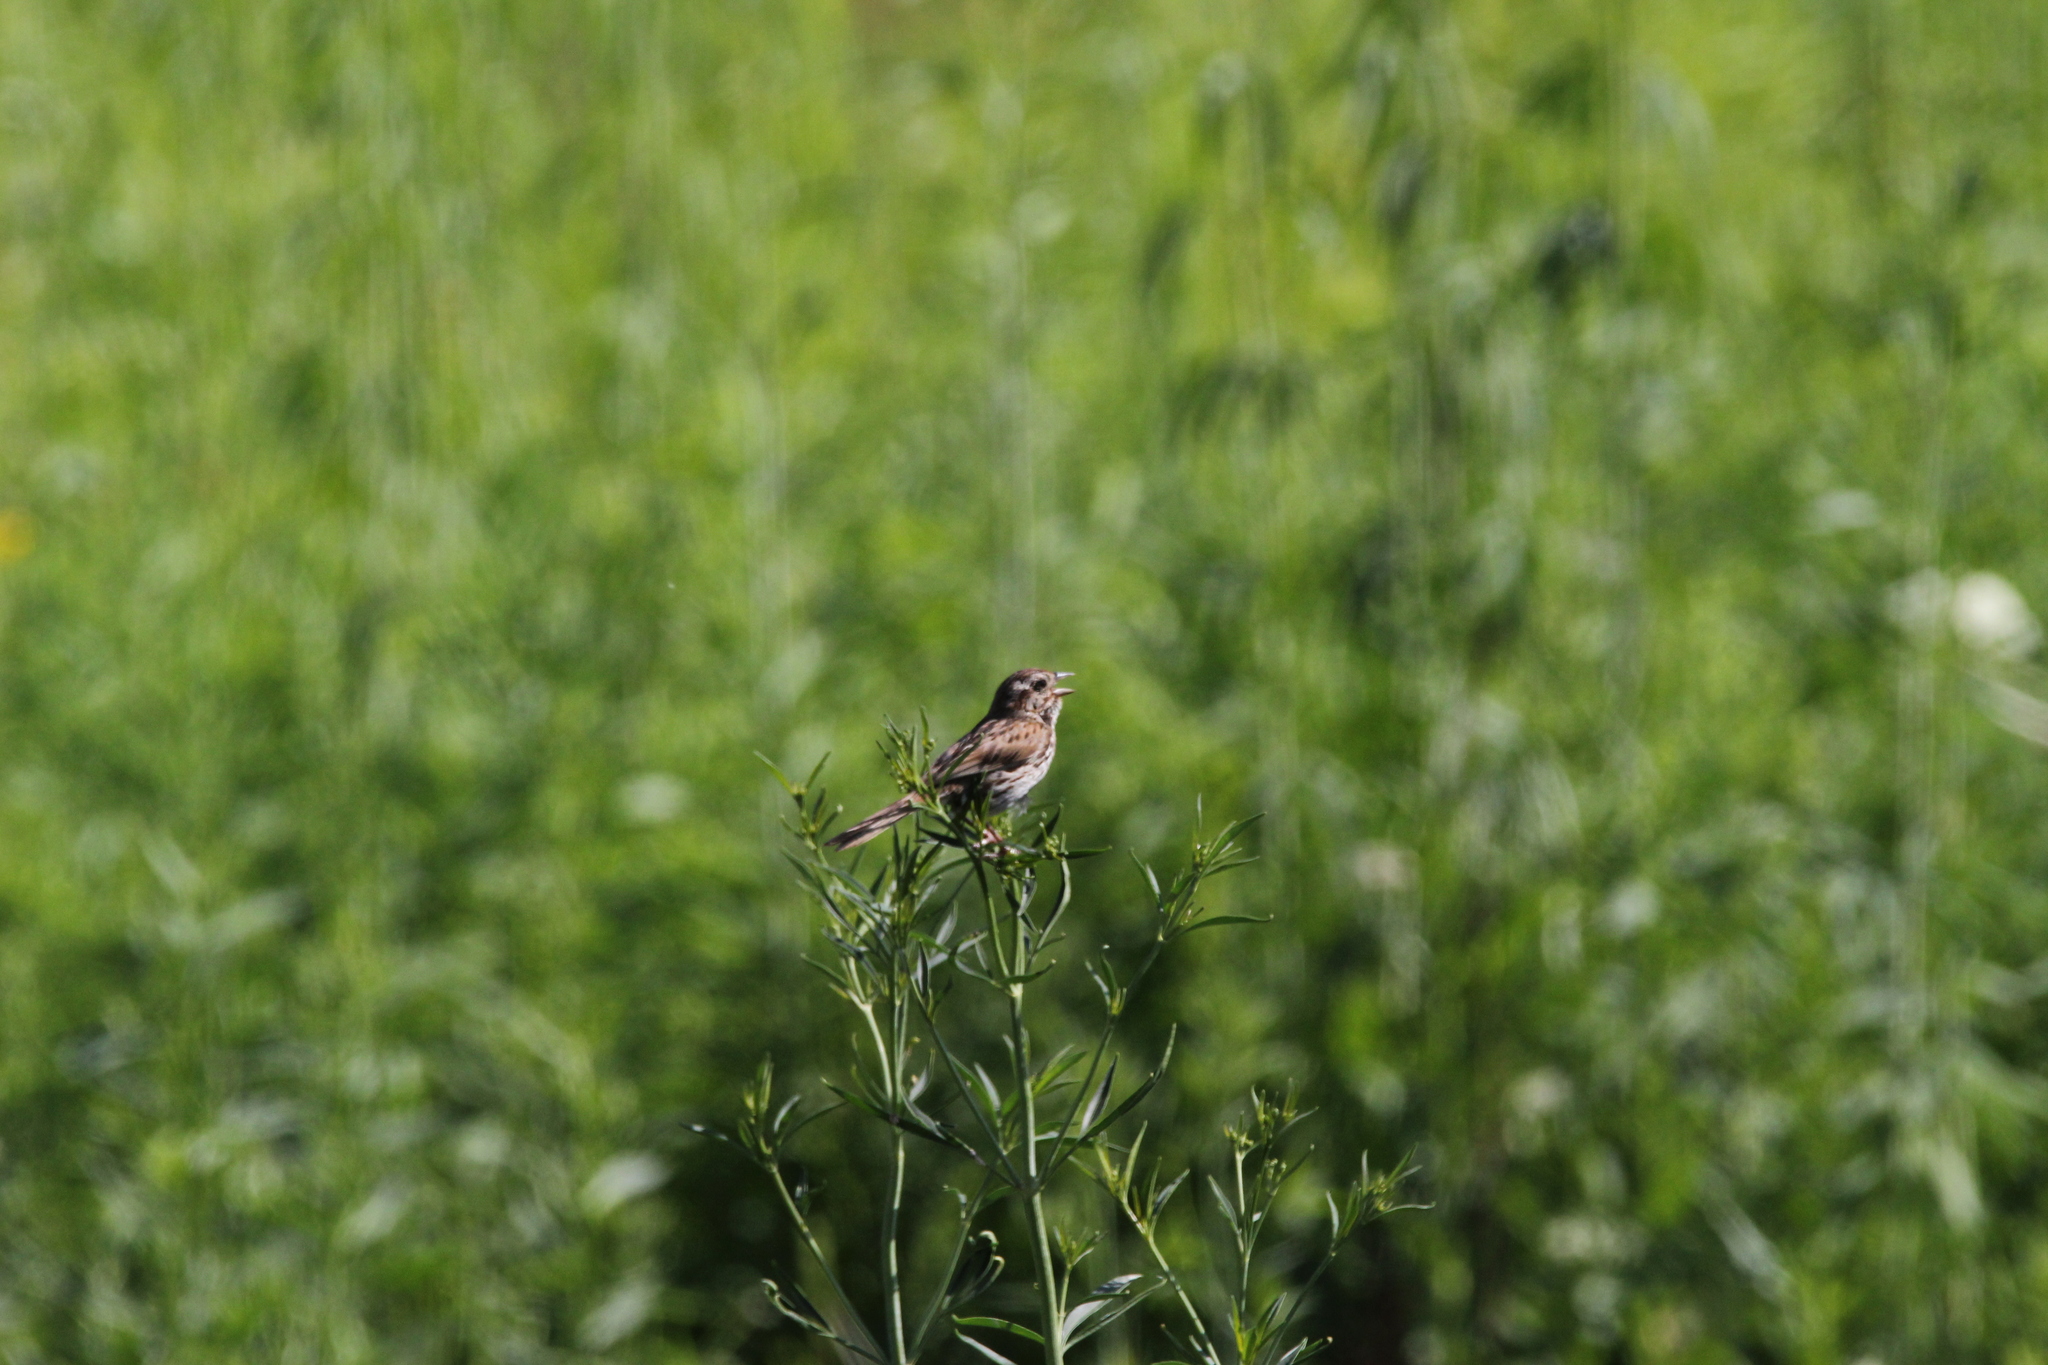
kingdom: Animalia
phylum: Chordata
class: Aves
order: Passeriformes
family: Passerellidae
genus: Melospiza
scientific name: Melospiza melodia
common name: Song sparrow
